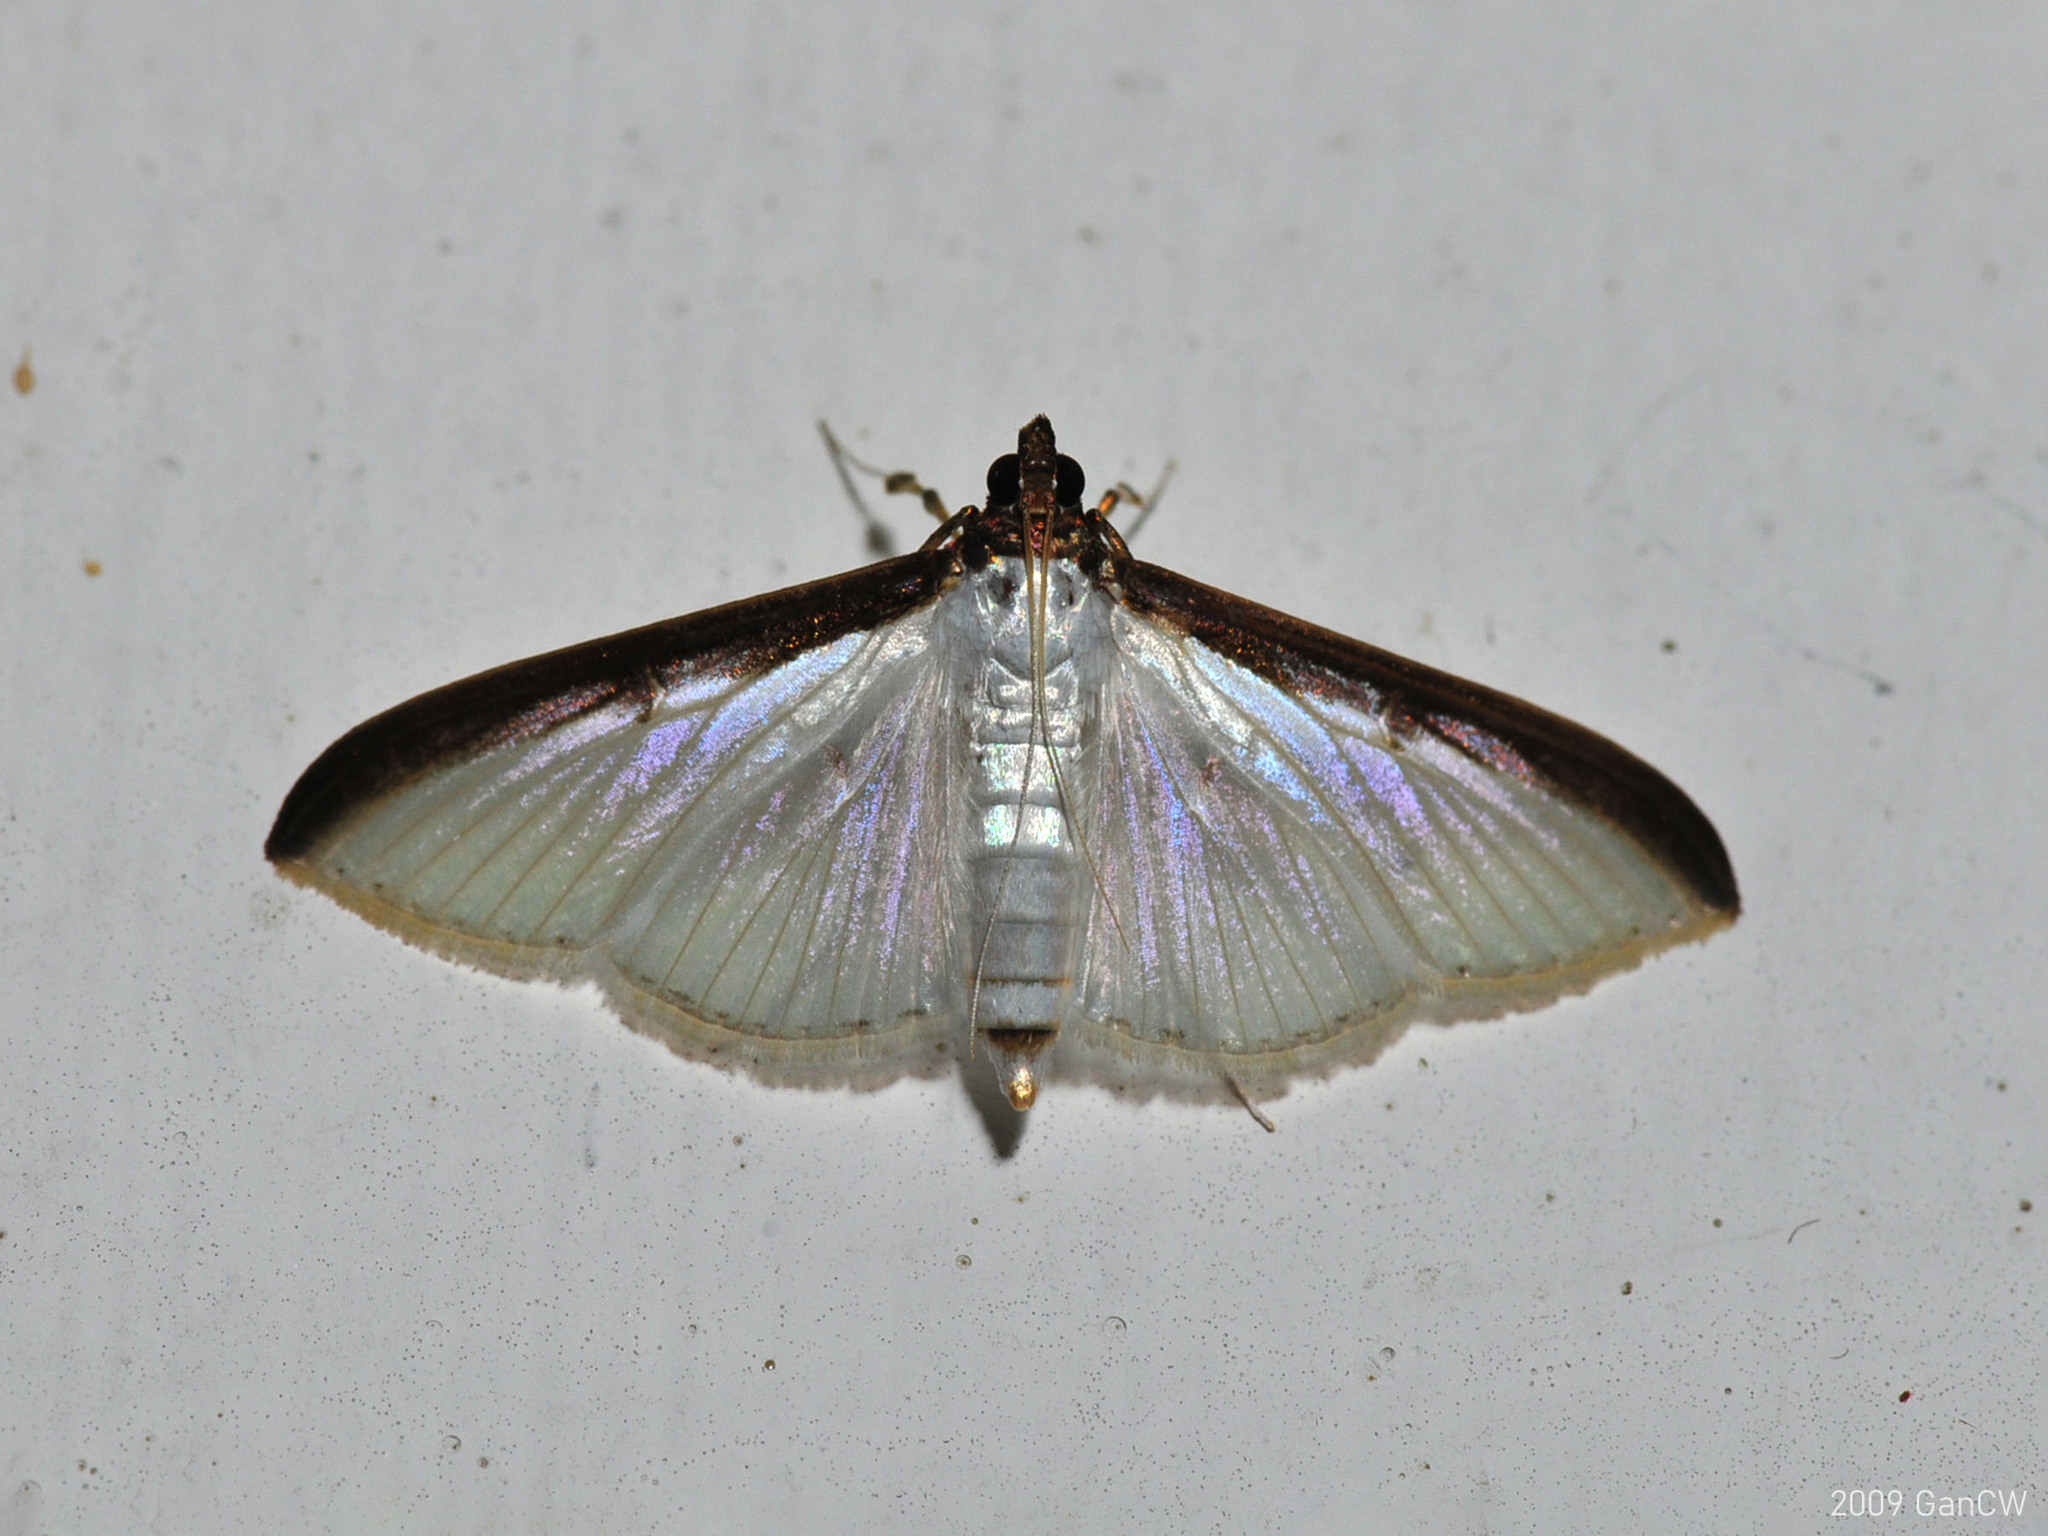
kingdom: Animalia
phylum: Arthropoda
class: Insecta
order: Lepidoptera
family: Crambidae
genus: Cydalima
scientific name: Cydalima laticostalis
